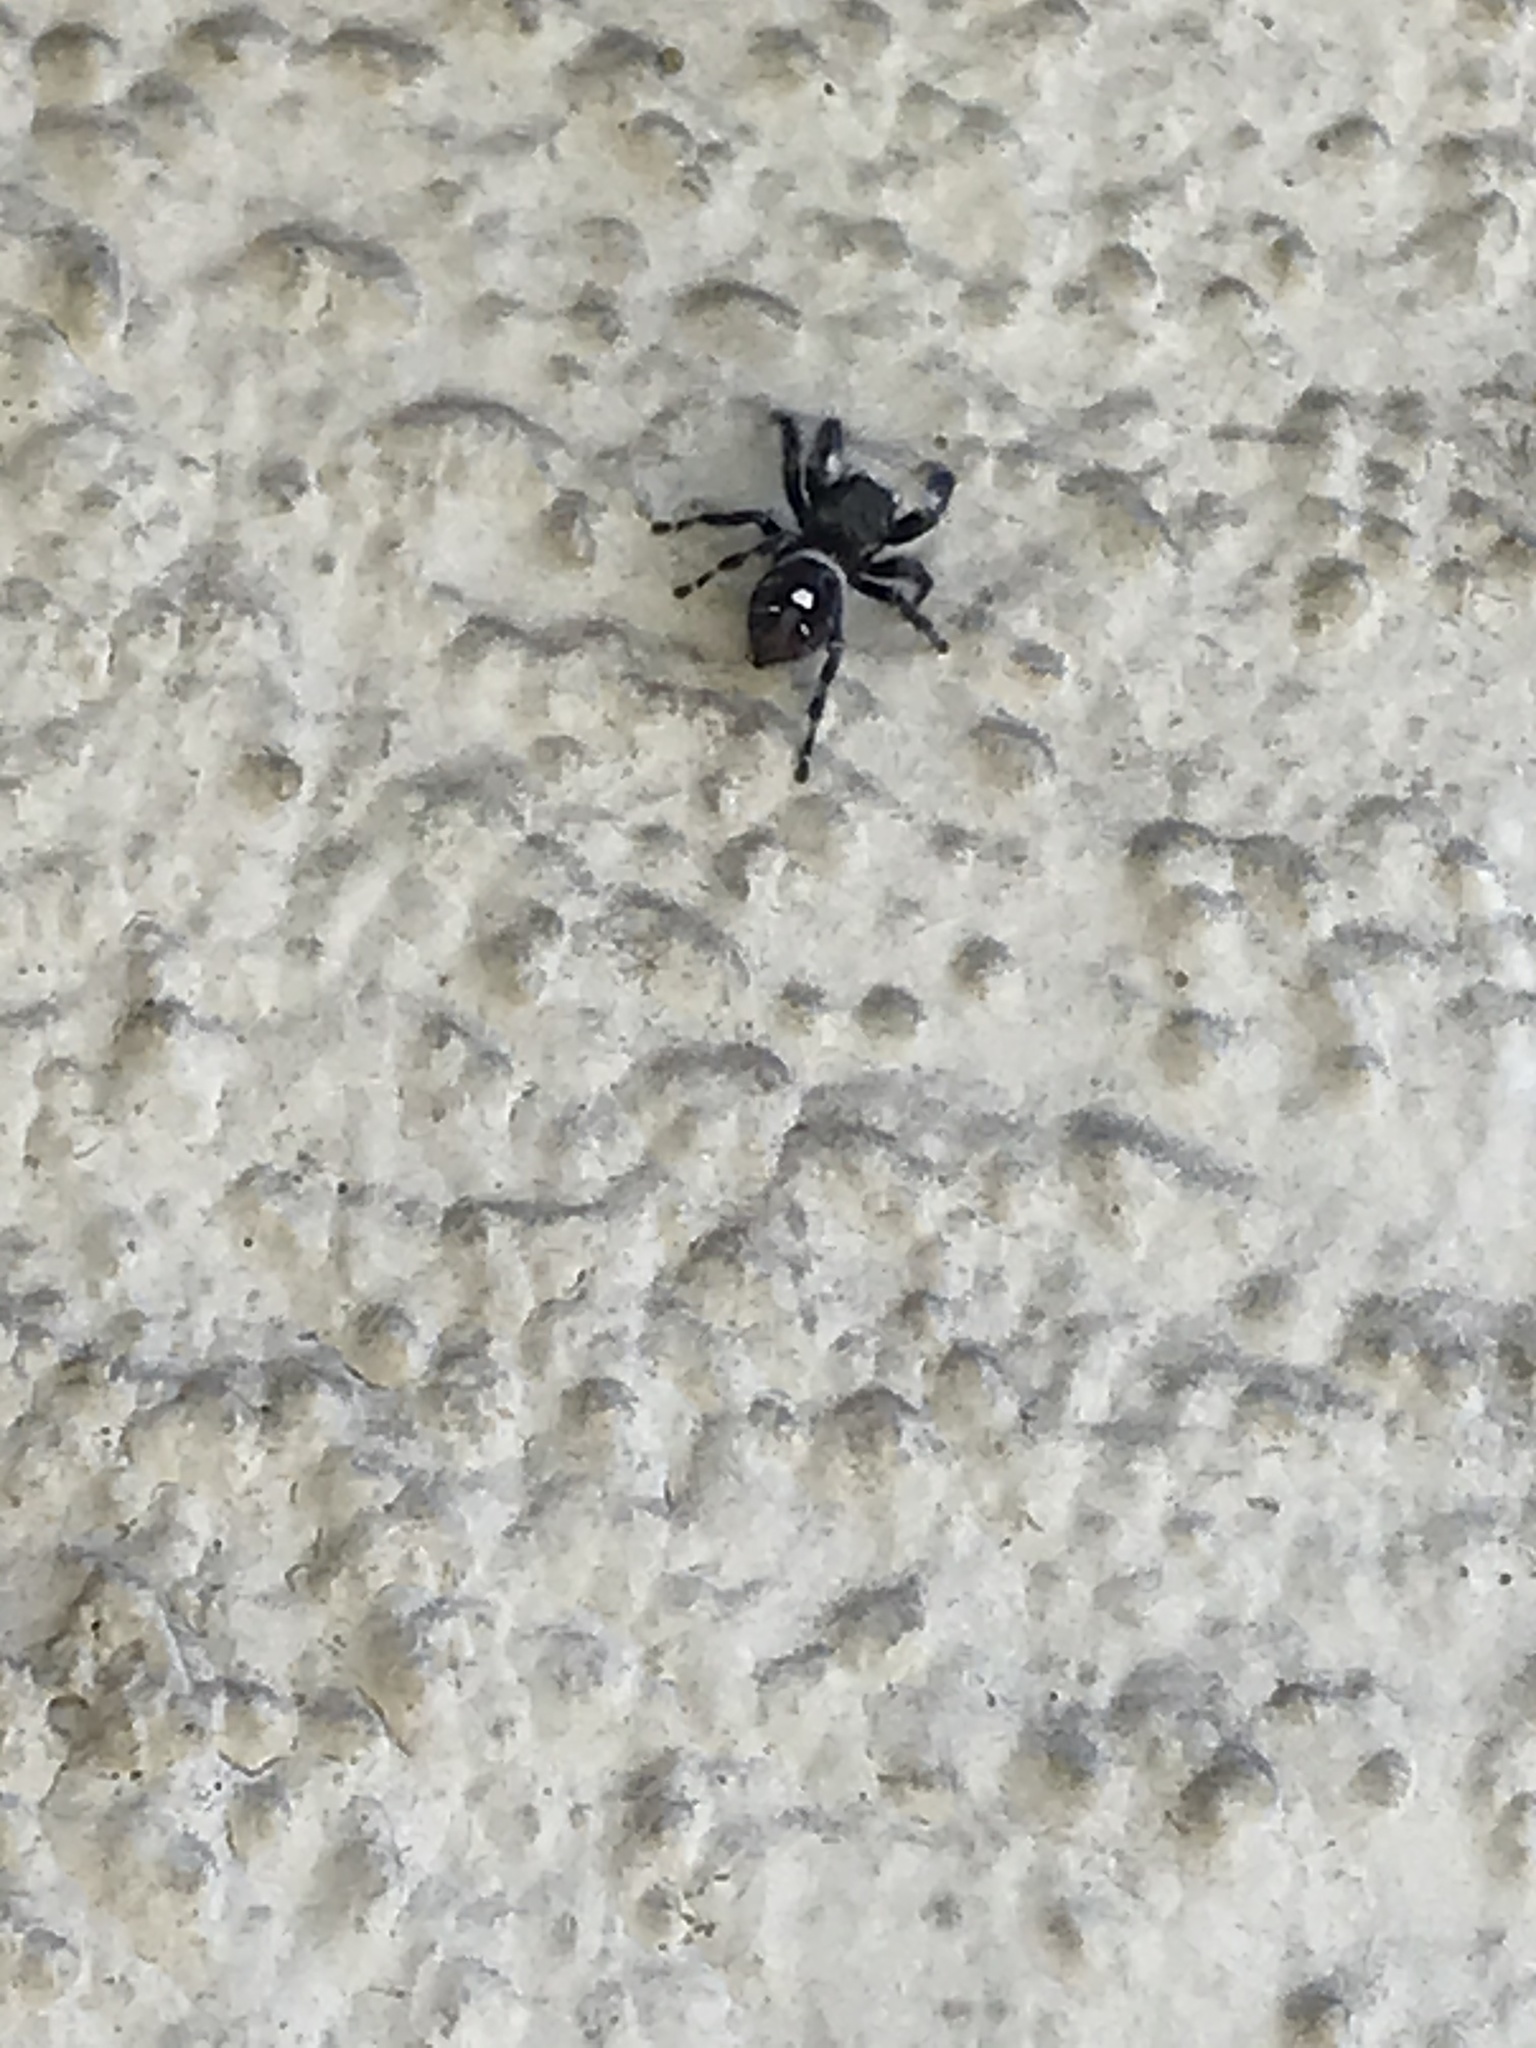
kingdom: Animalia
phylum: Arthropoda
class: Arachnida
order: Araneae
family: Salticidae
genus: Phidippus
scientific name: Phidippus audax
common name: Bold jumper
